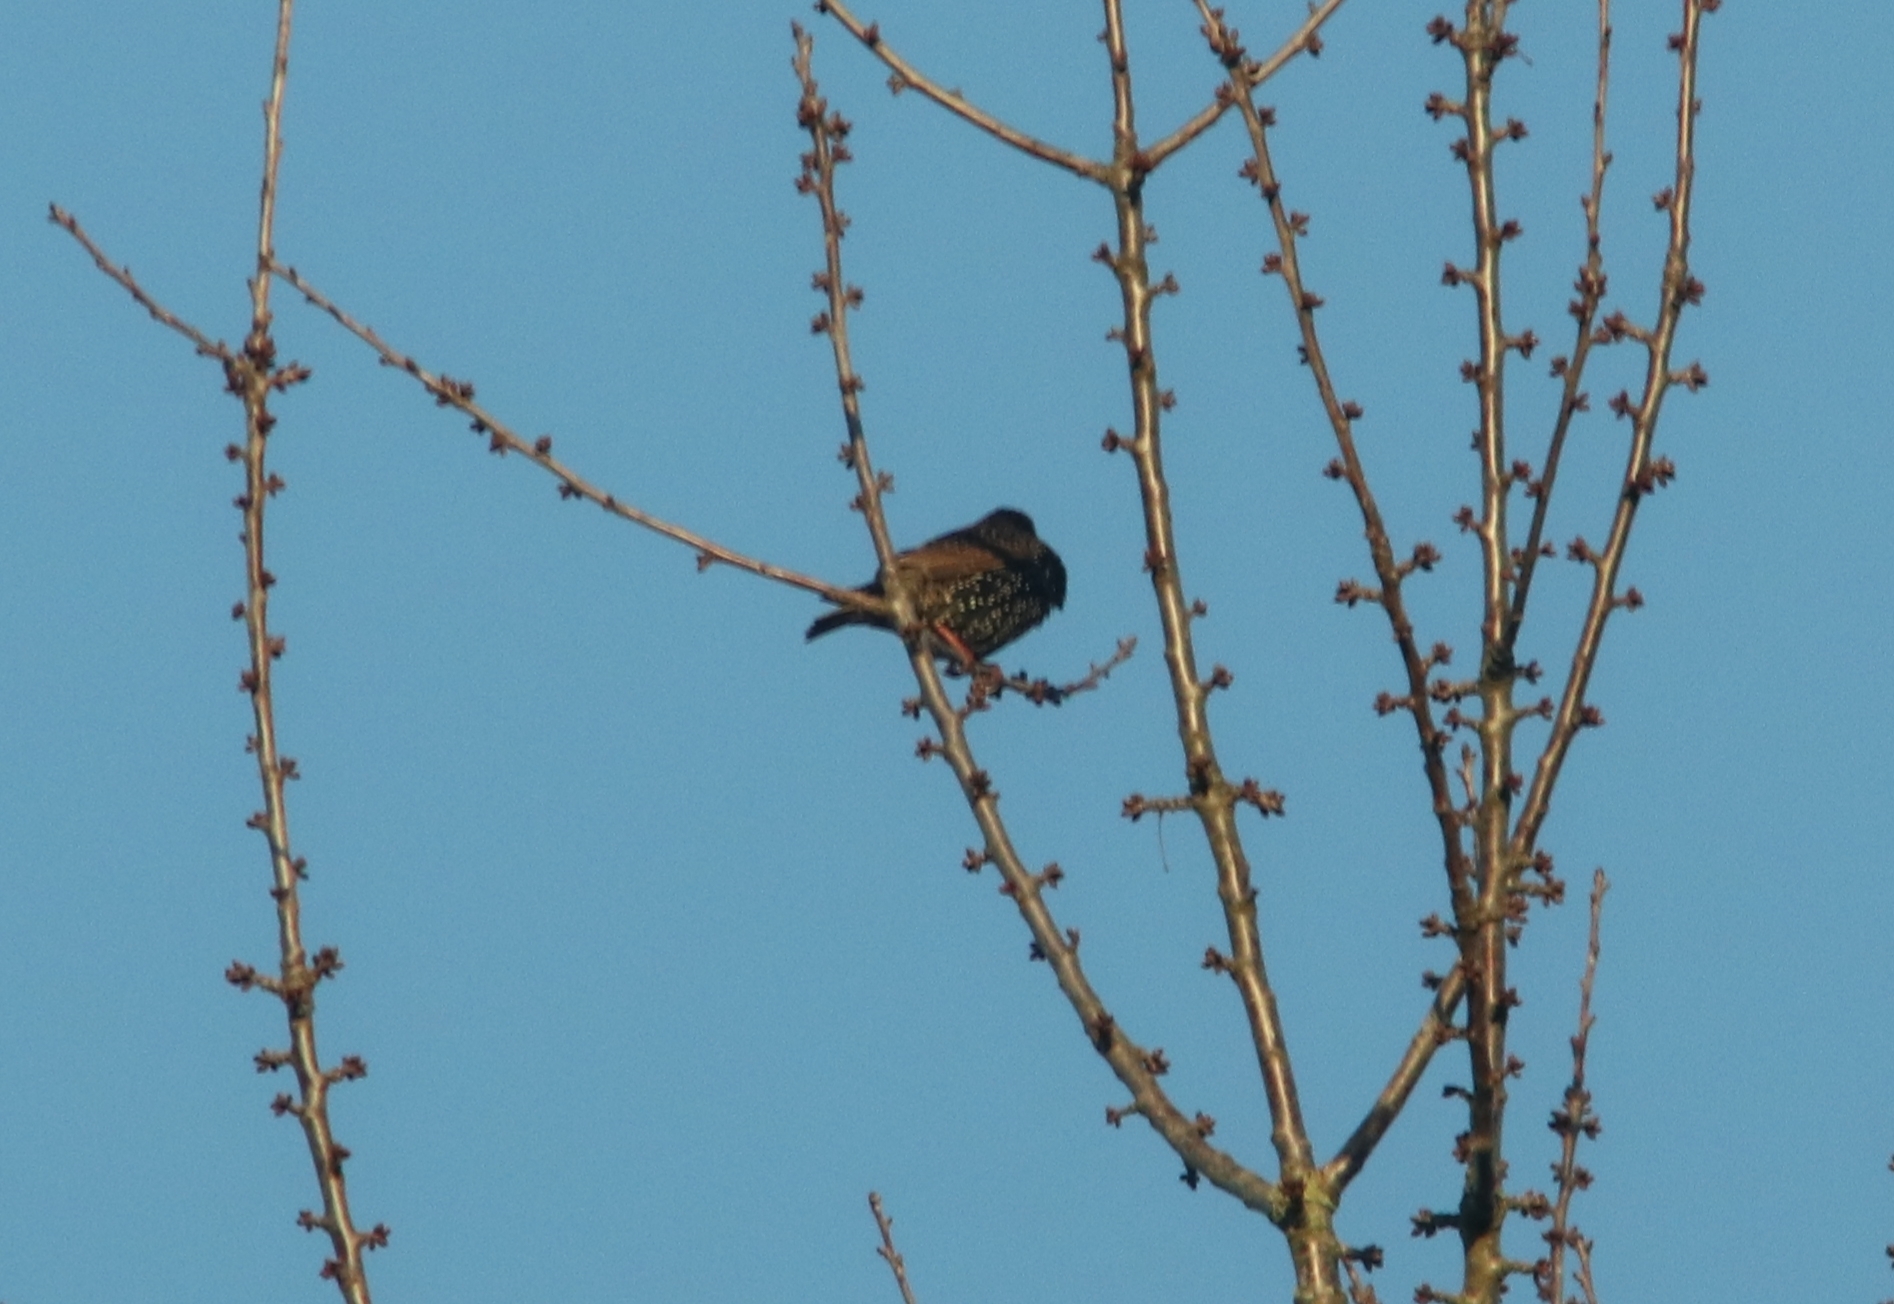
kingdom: Animalia
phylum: Chordata
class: Aves
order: Passeriformes
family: Sturnidae
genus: Sturnus
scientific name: Sturnus vulgaris
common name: Common starling
